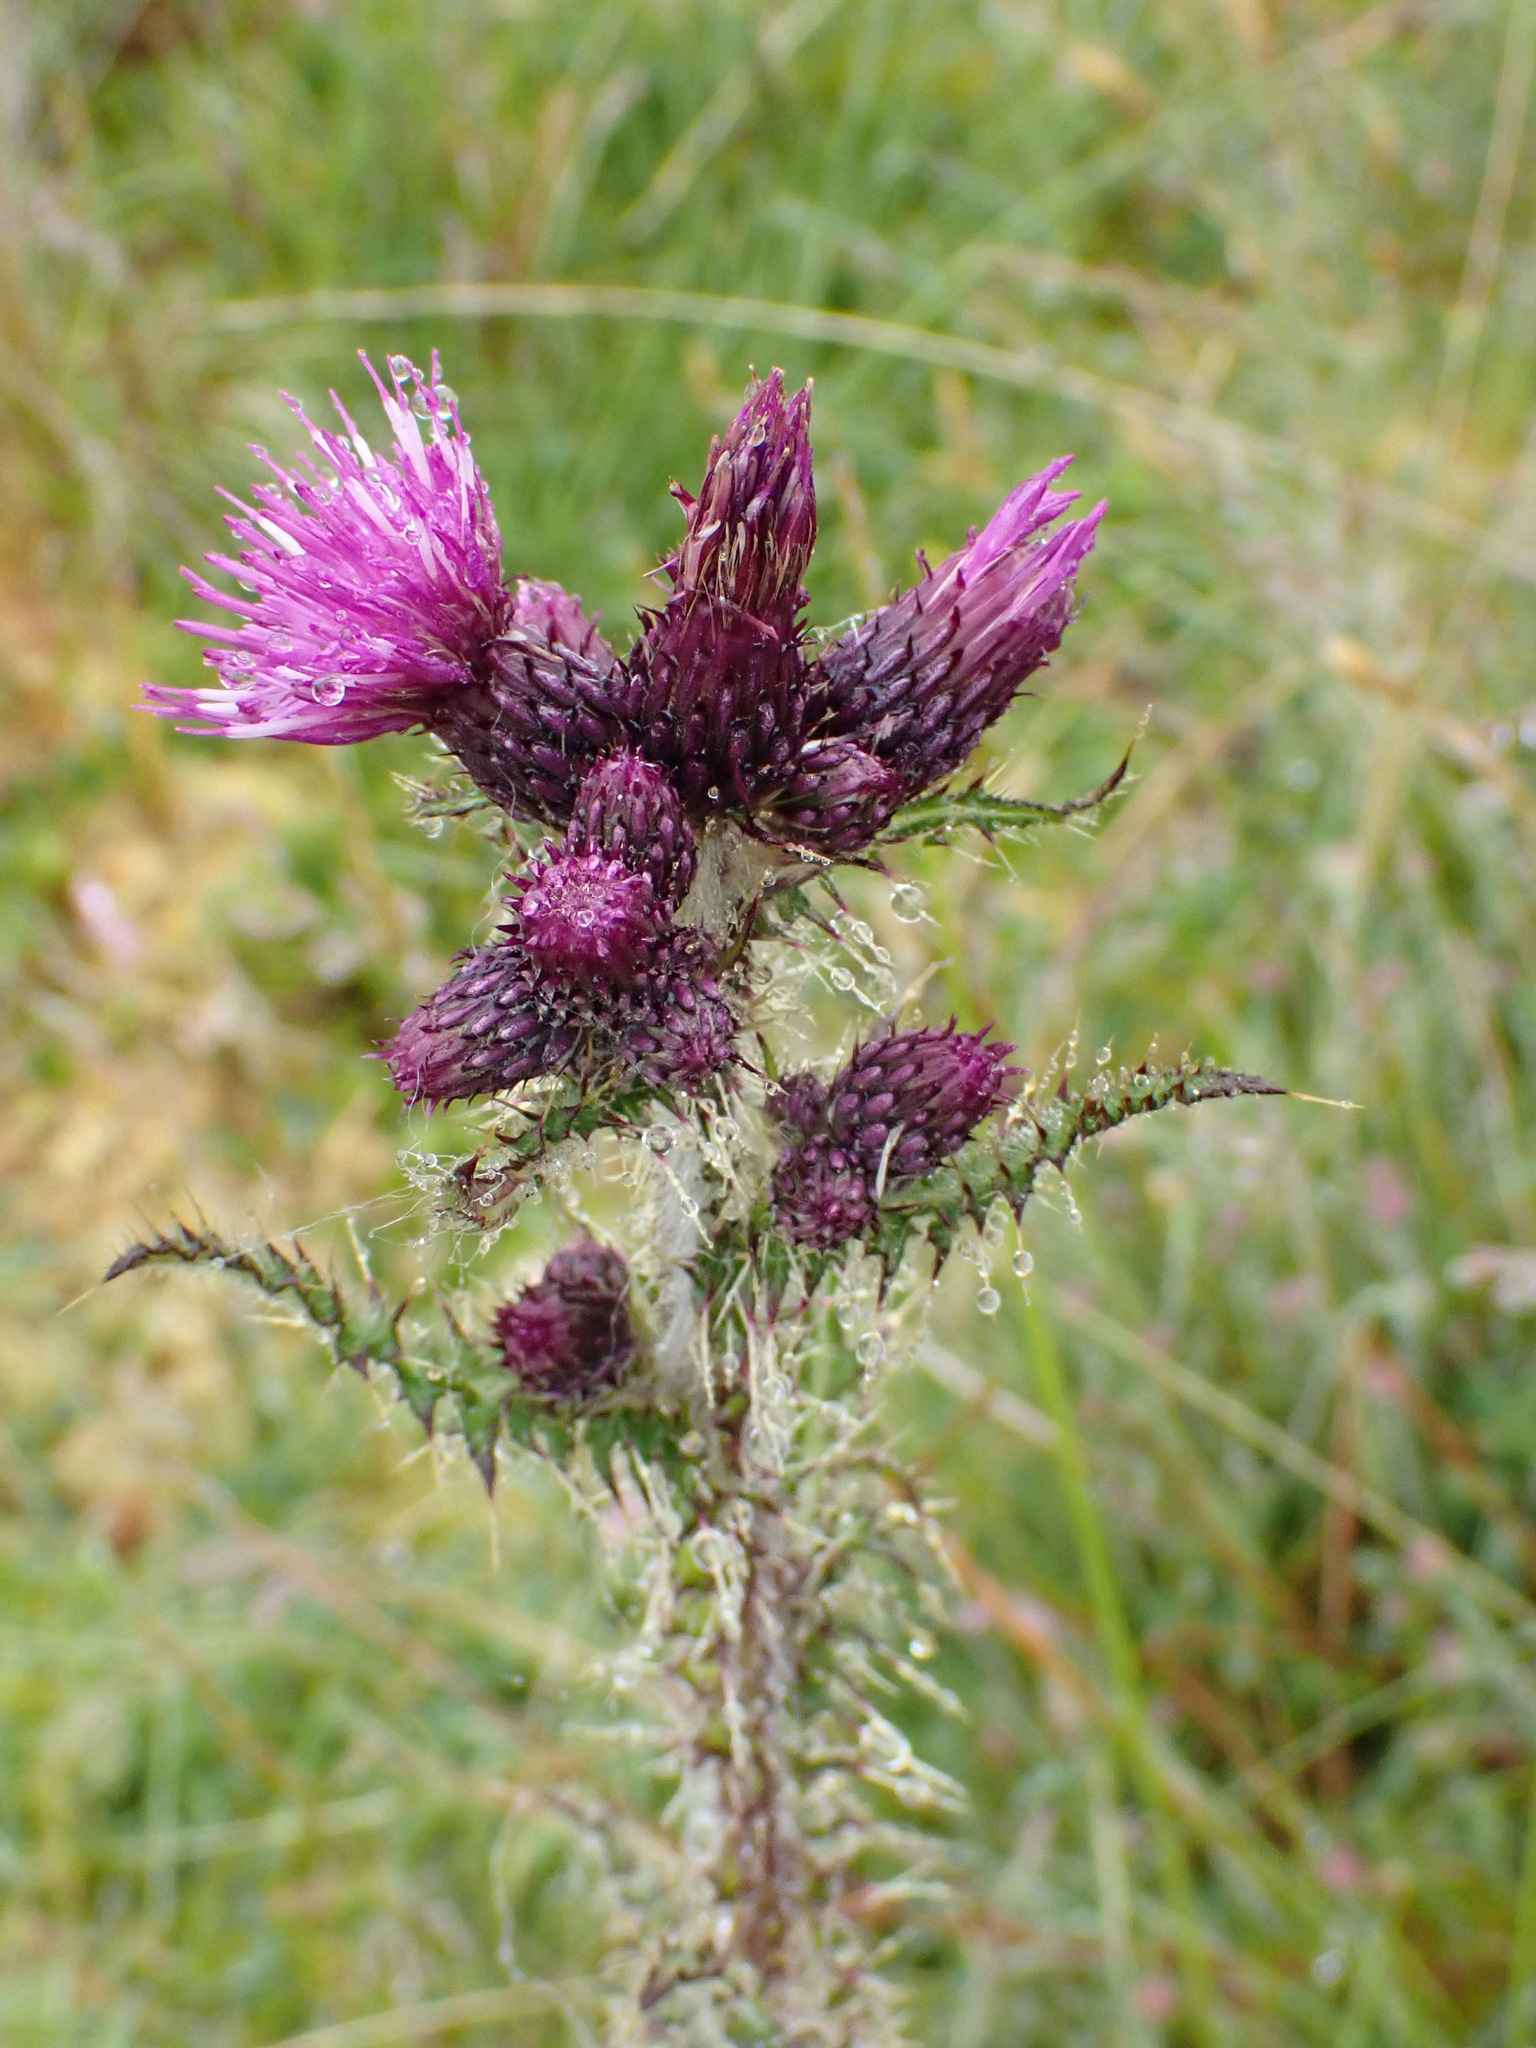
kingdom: Plantae
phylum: Tracheophyta
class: Magnoliopsida
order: Asterales
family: Asteraceae
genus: Cirsium
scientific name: Cirsium palustre
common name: Marsh thistle
